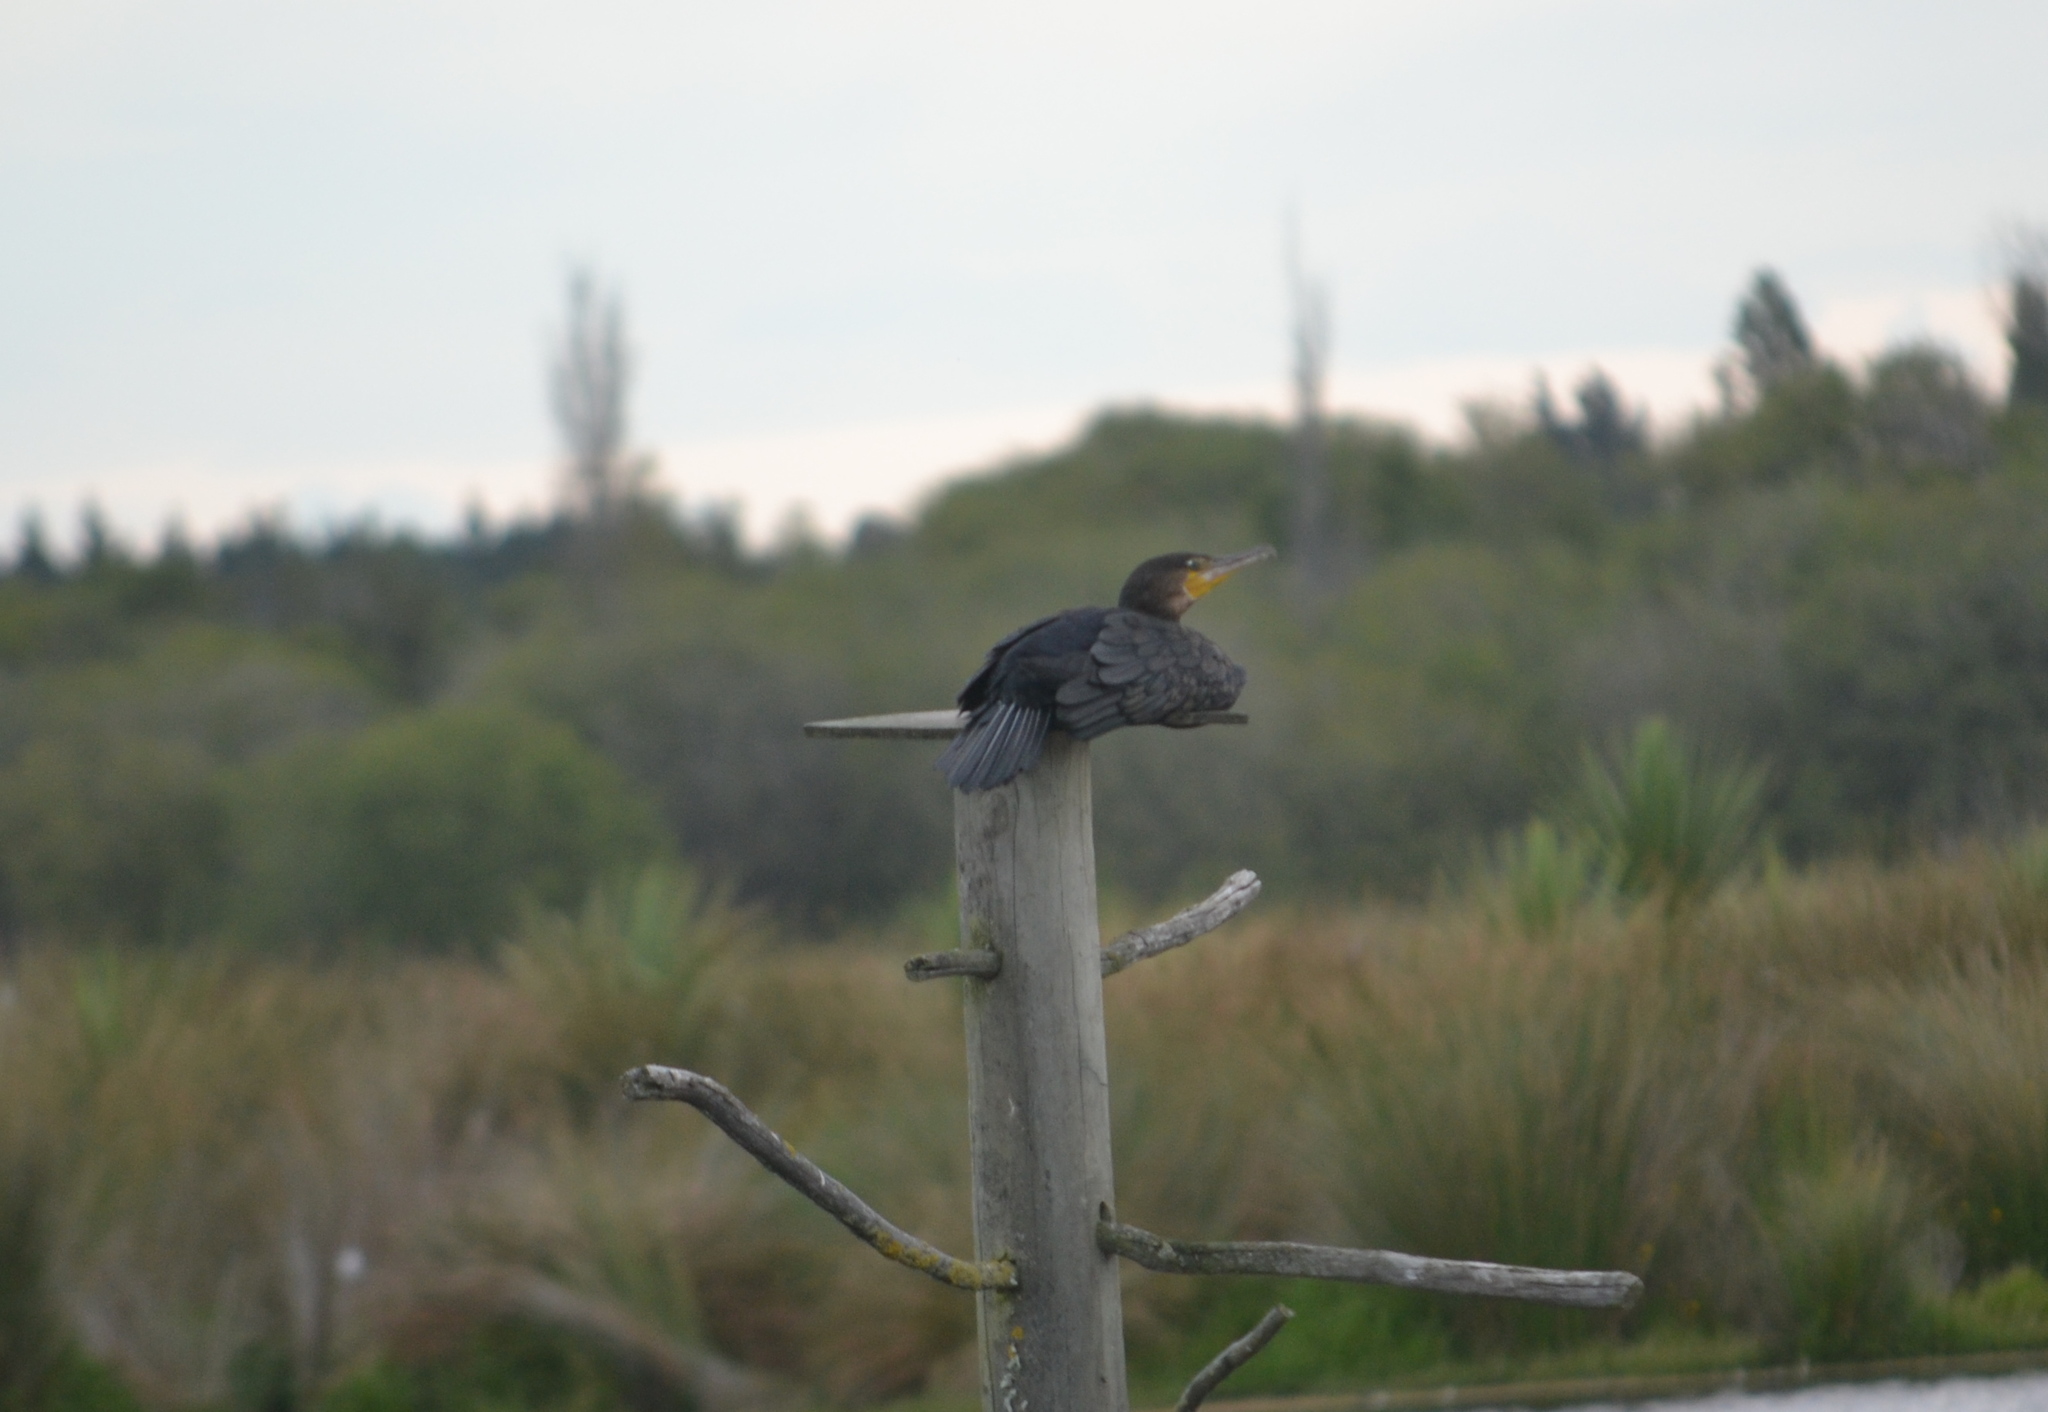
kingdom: Animalia
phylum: Chordata
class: Aves
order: Suliformes
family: Phalacrocoracidae
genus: Phalacrocorax
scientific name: Phalacrocorax carbo
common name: Great cormorant
